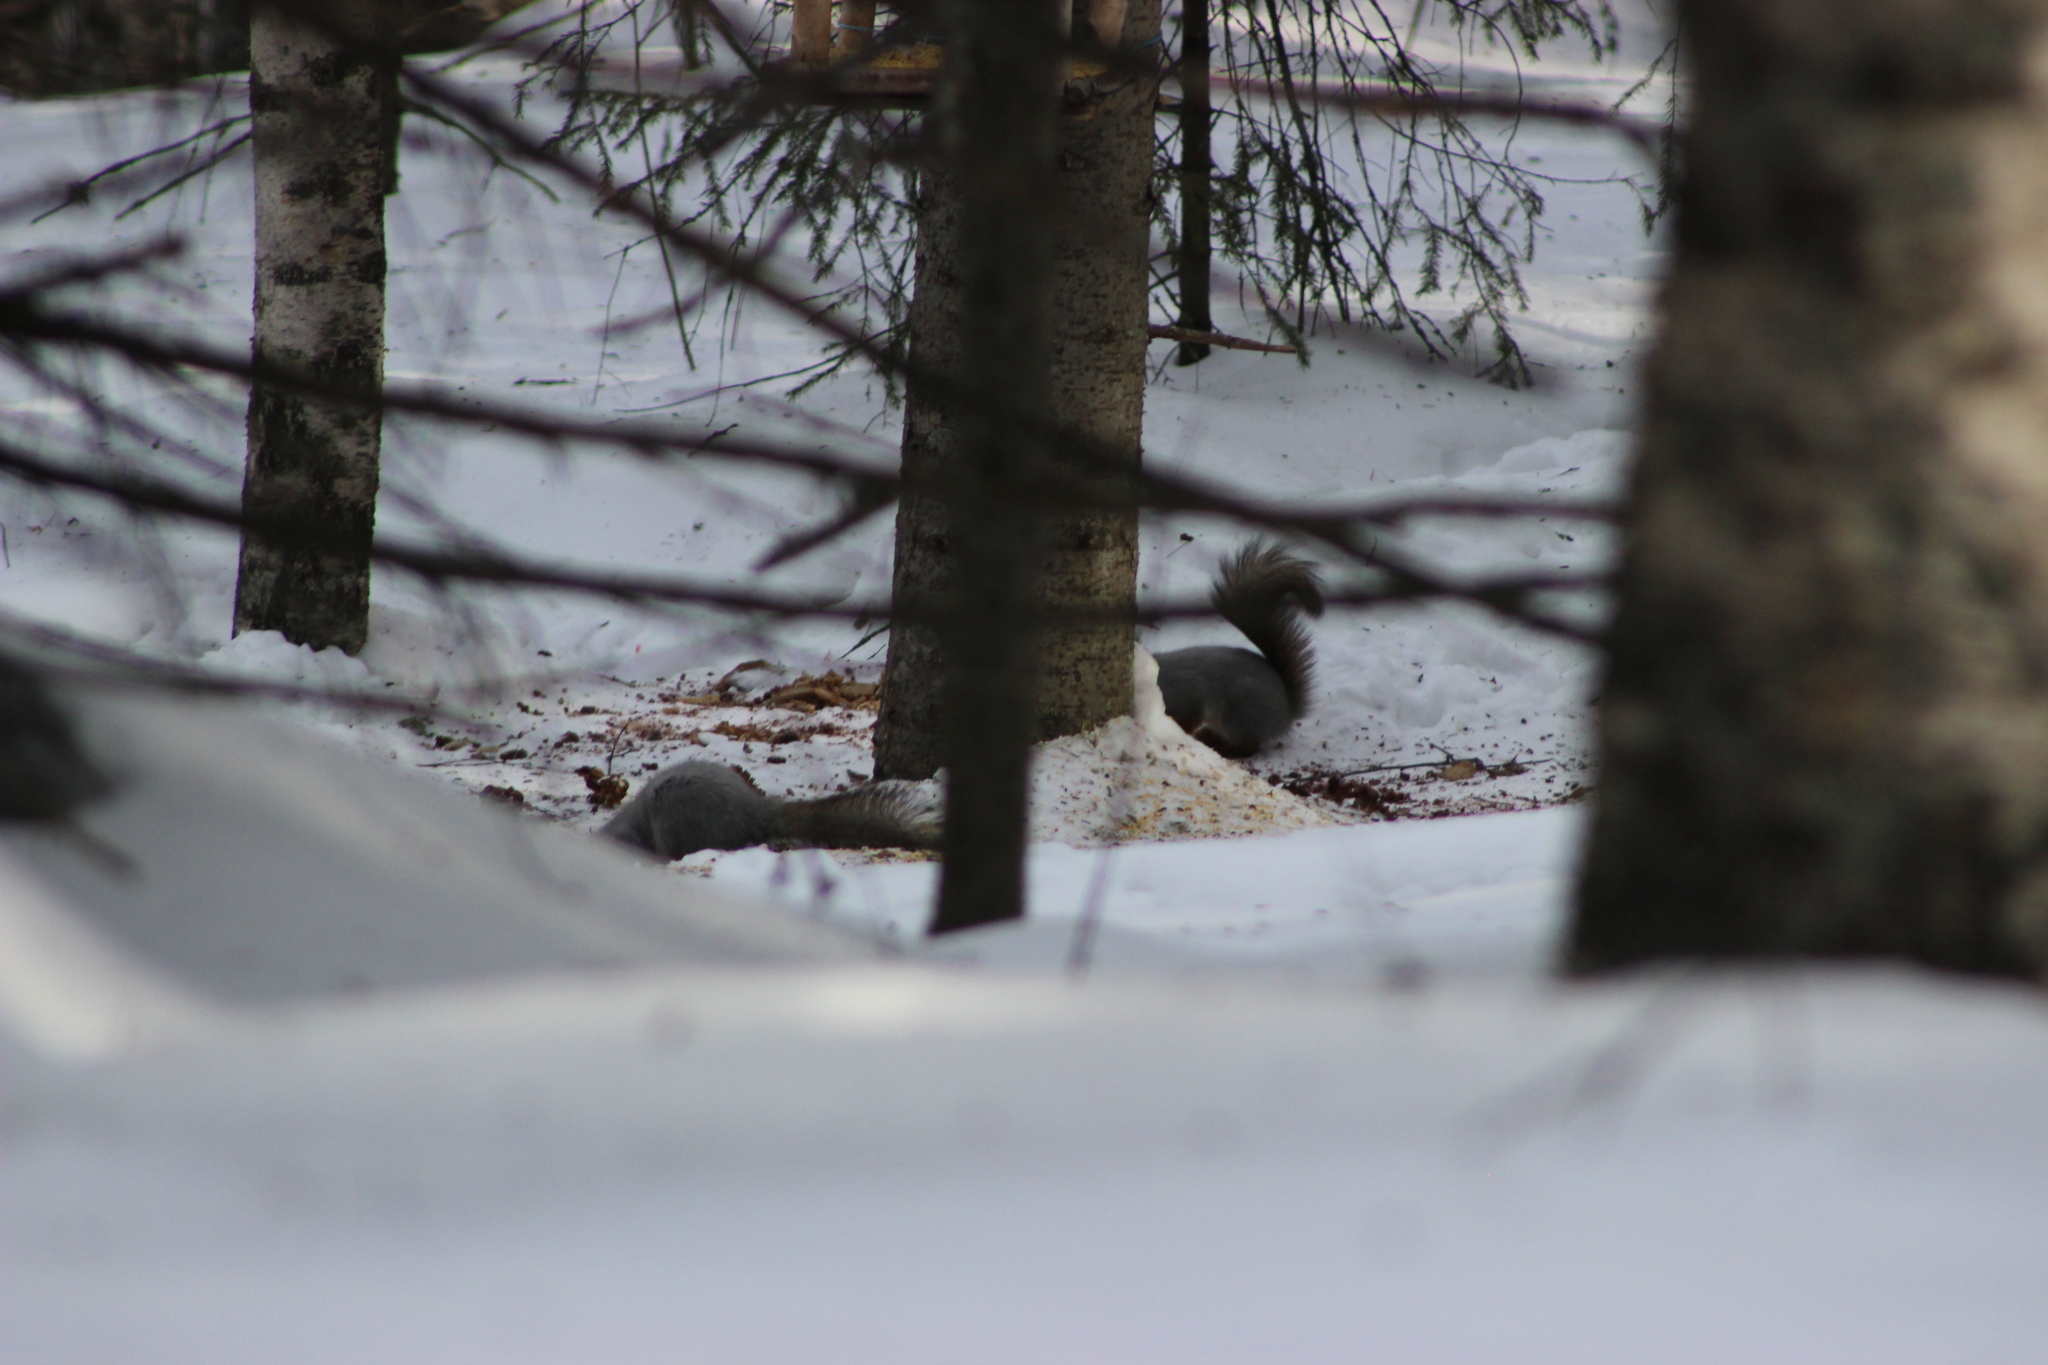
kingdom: Animalia
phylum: Chordata
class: Mammalia
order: Rodentia
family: Sciuridae
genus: Sciurus
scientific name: Sciurus vulgaris
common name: Eurasian red squirrel
